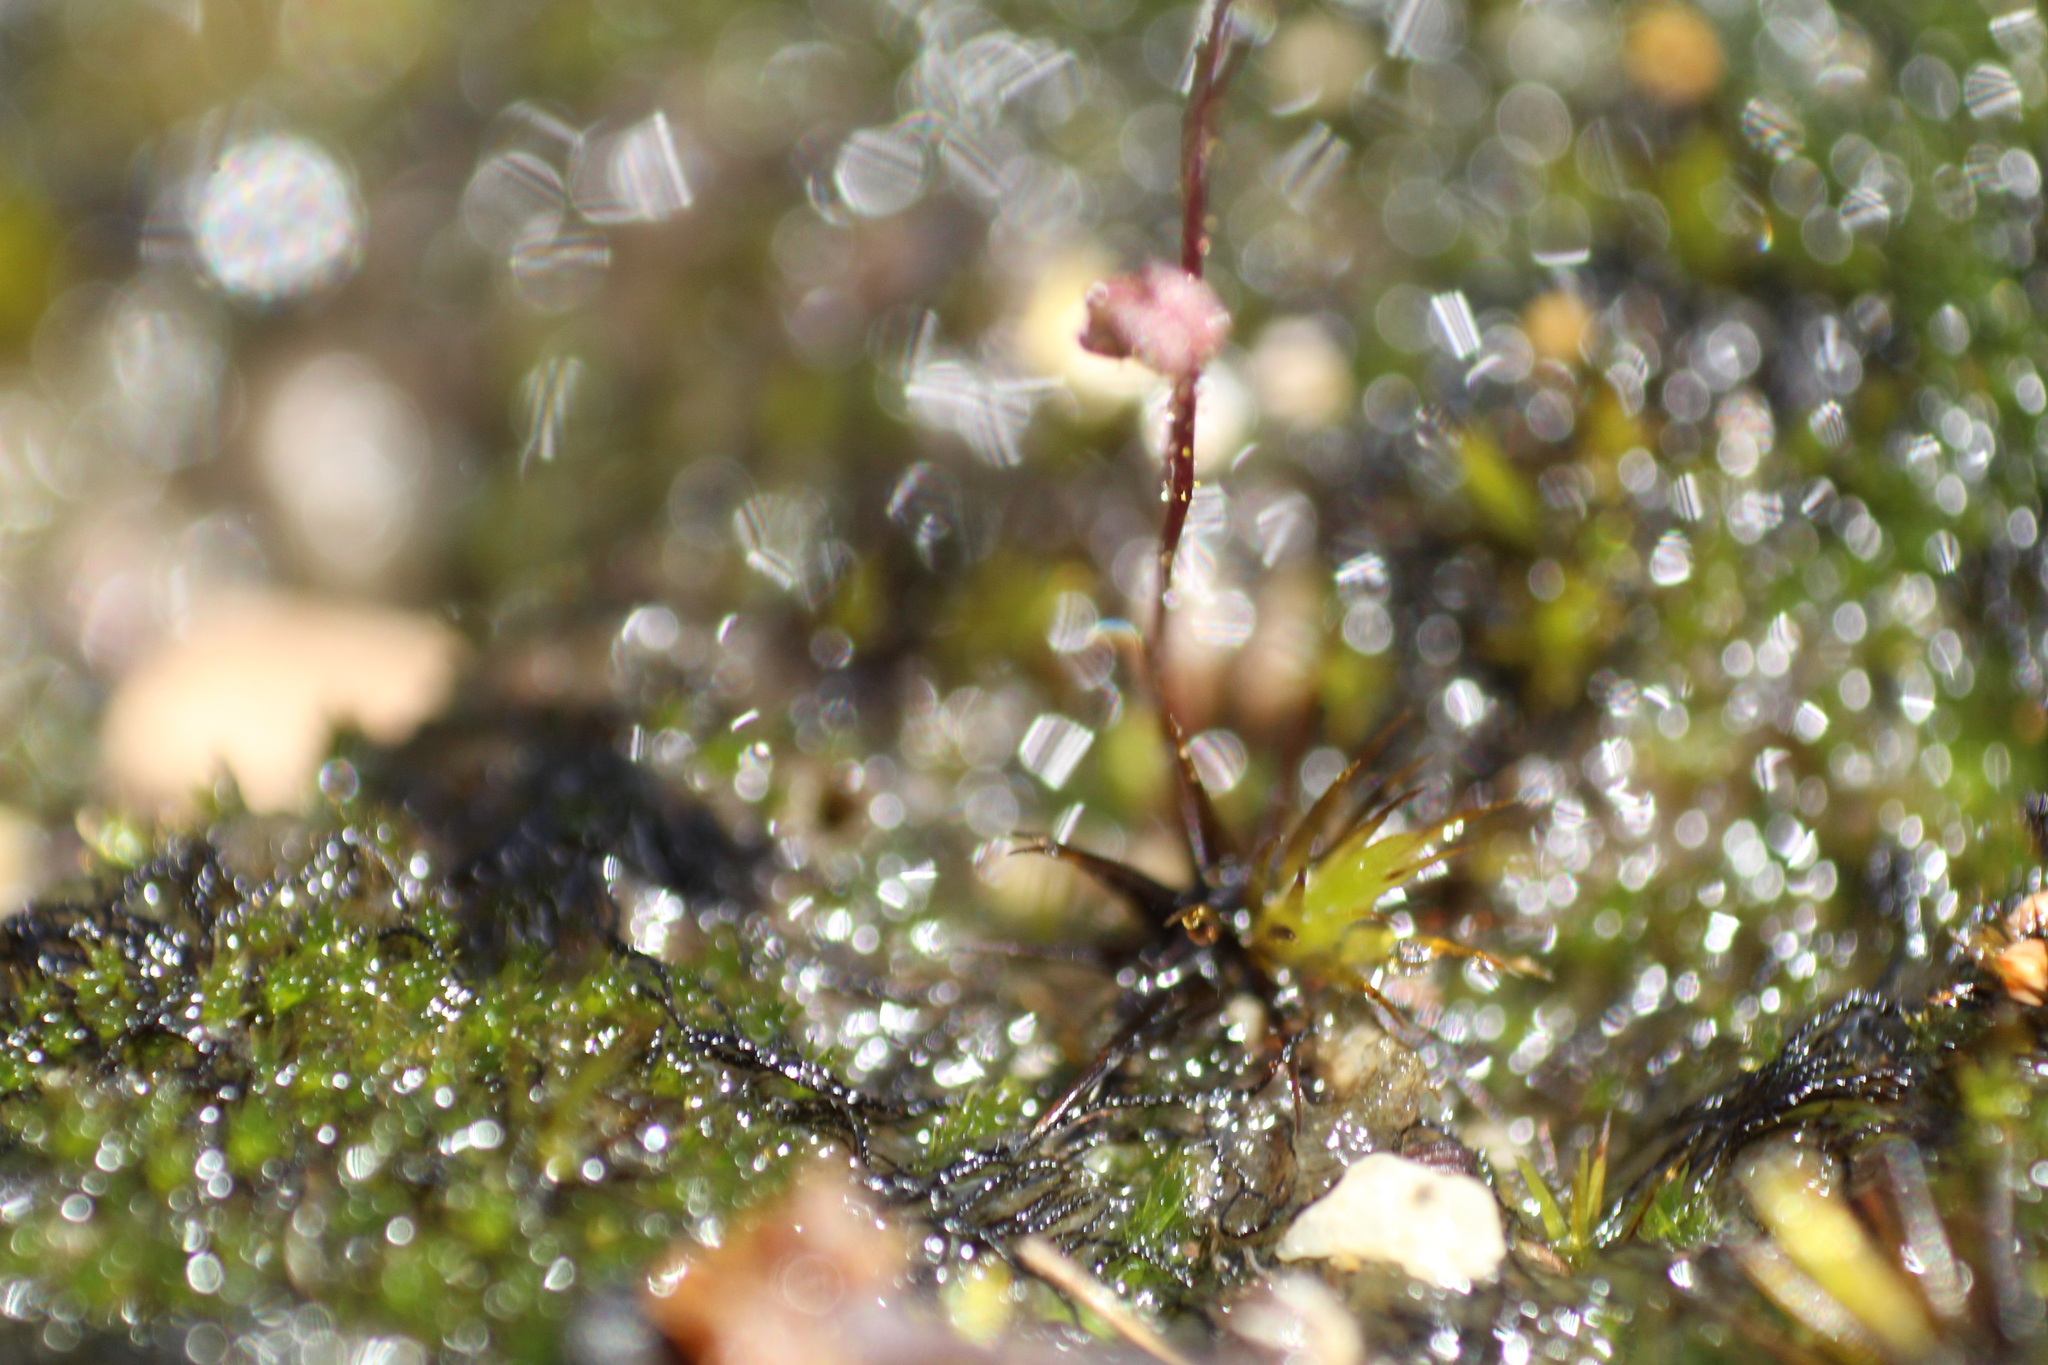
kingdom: Plantae
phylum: Tracheophyta
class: Magnoliopsida
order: Asterales
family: Stylidiaceae
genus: Stylidium
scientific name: Stylidium perpusillum
